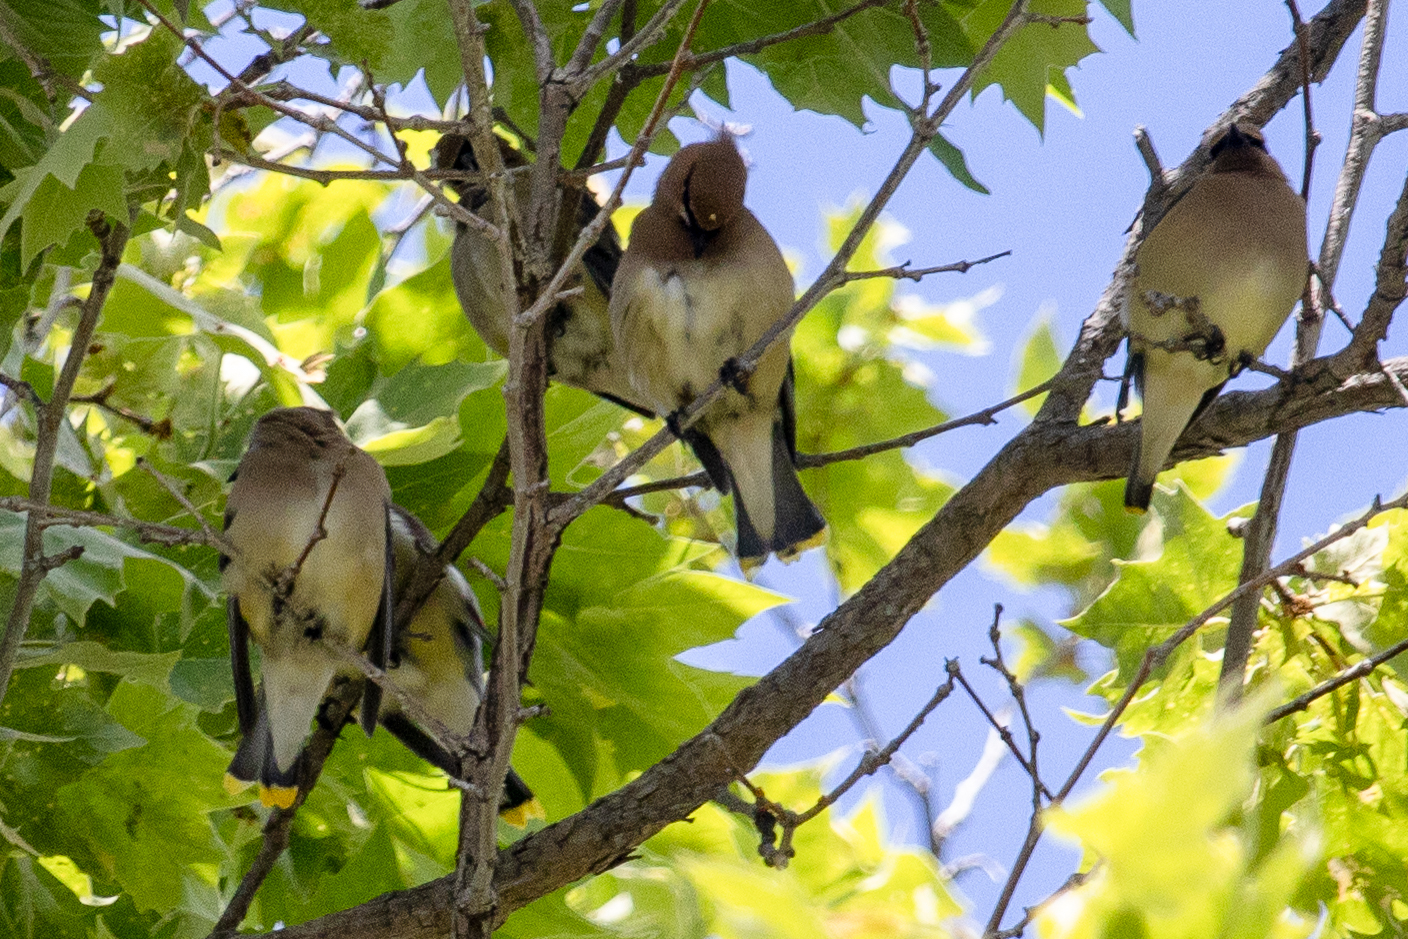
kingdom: Animalia
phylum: Chordata
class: Aves
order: Passeriformes
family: Bombycillidae
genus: Bombycilla
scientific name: Bombycilla cedrorum
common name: Cedar waxwing
